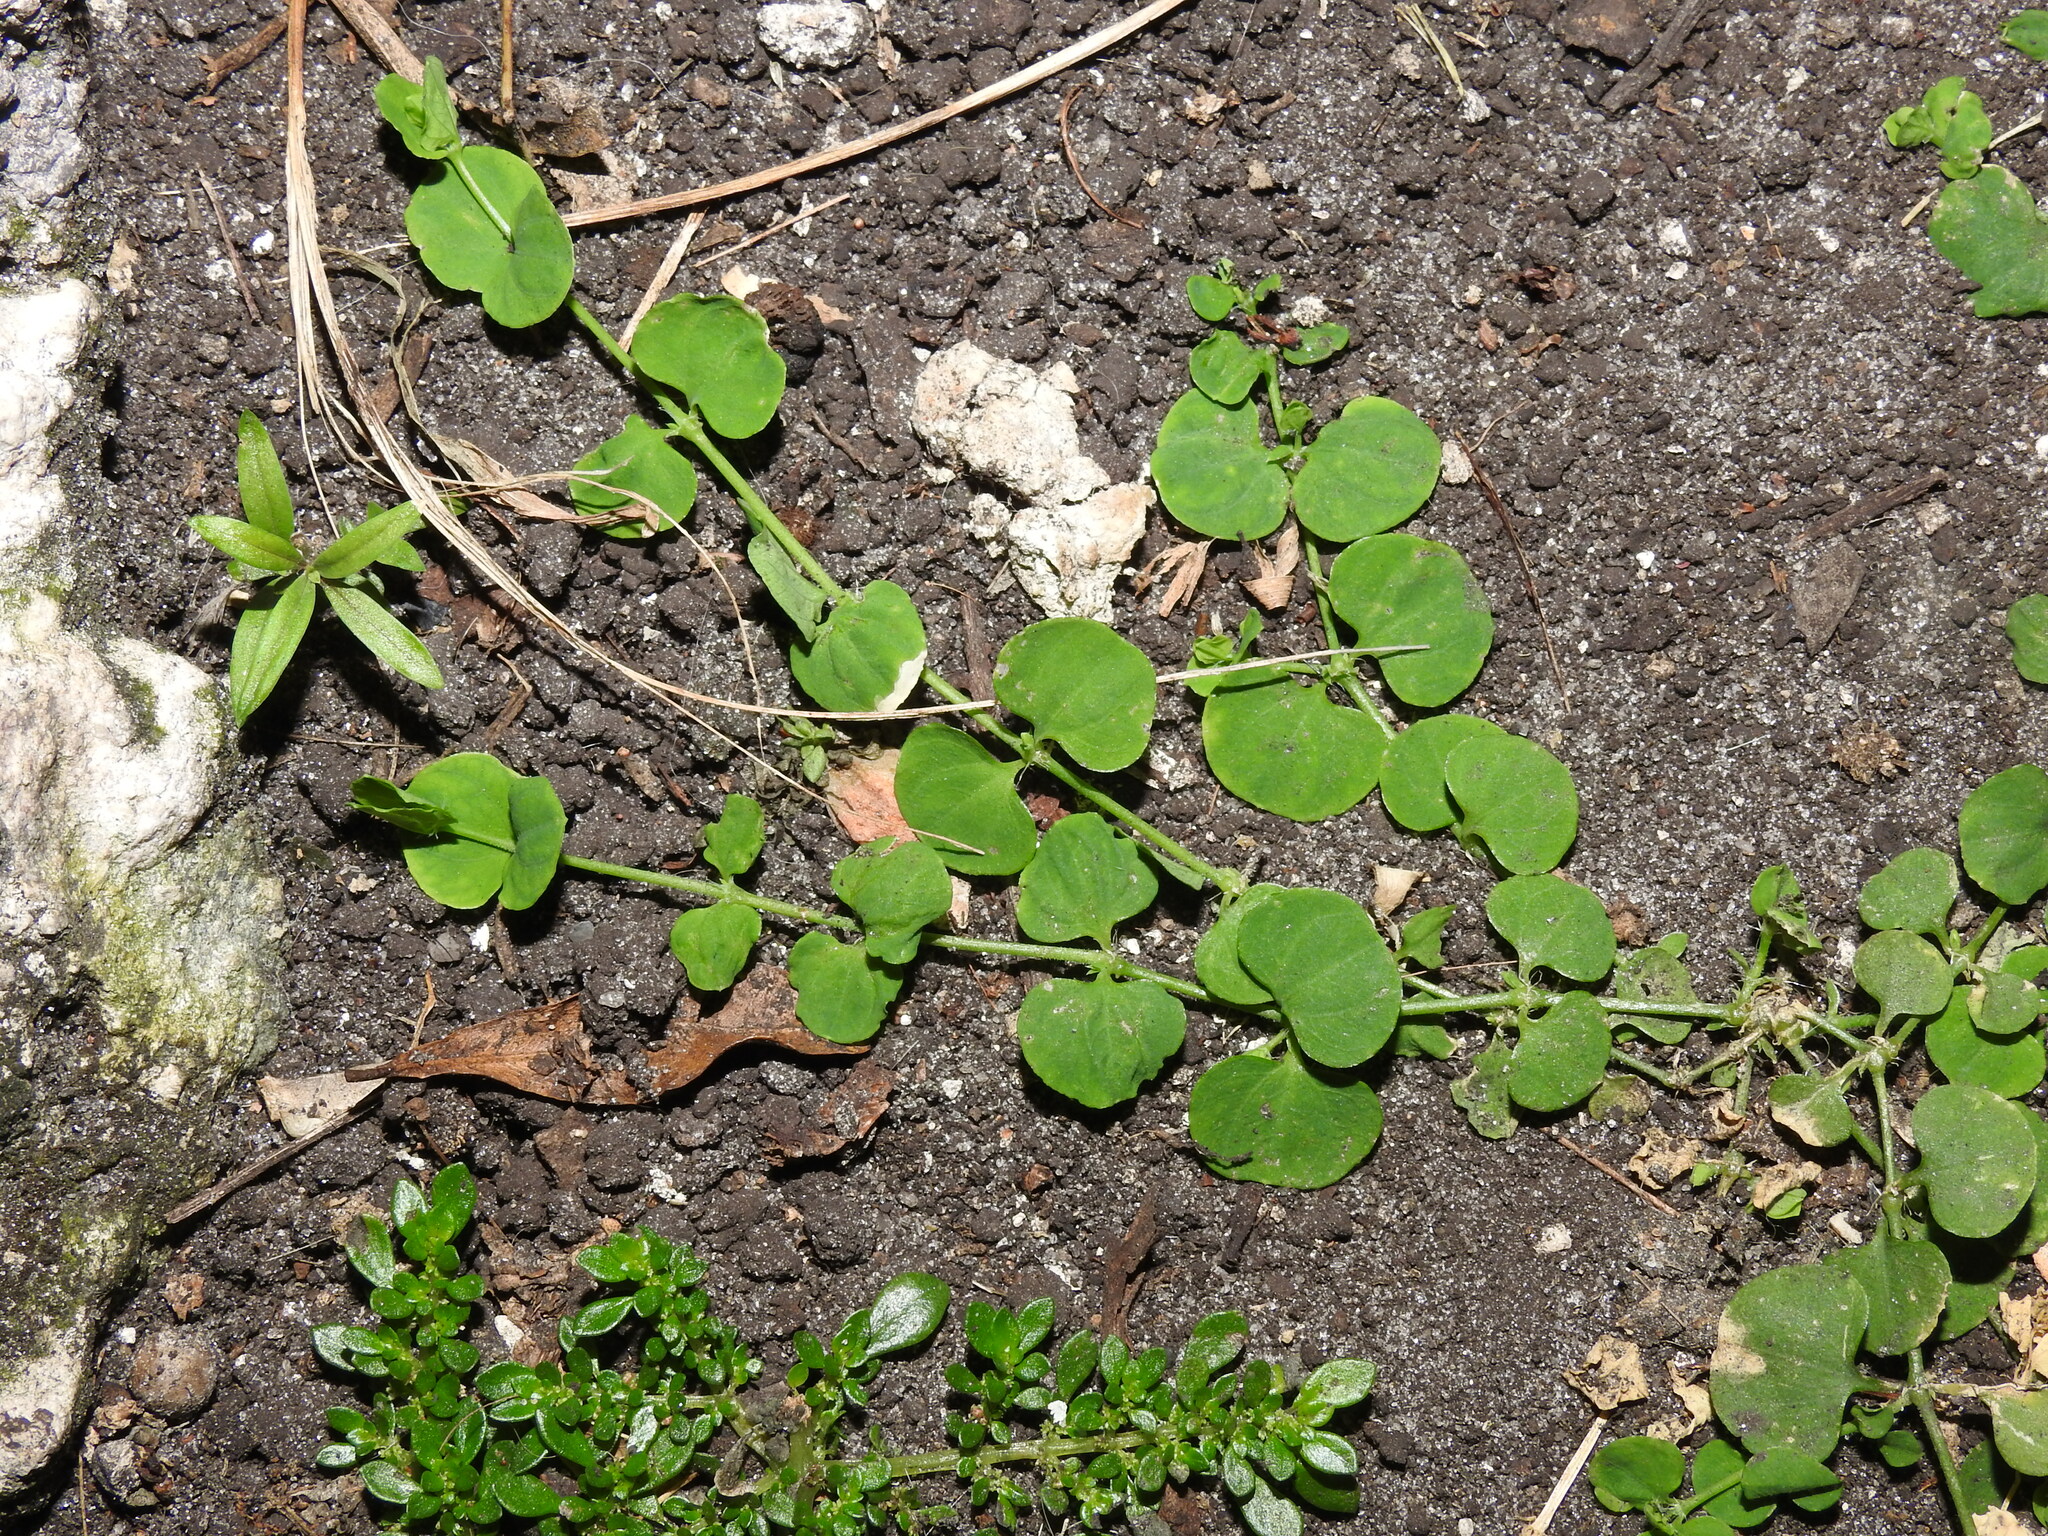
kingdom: Plantae
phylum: Tracheophyta
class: Magnoliopsida
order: Caryophyllales
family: Caryophyllaceae
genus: Drymaria
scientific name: Drymaria cordata
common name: Whitesnow
